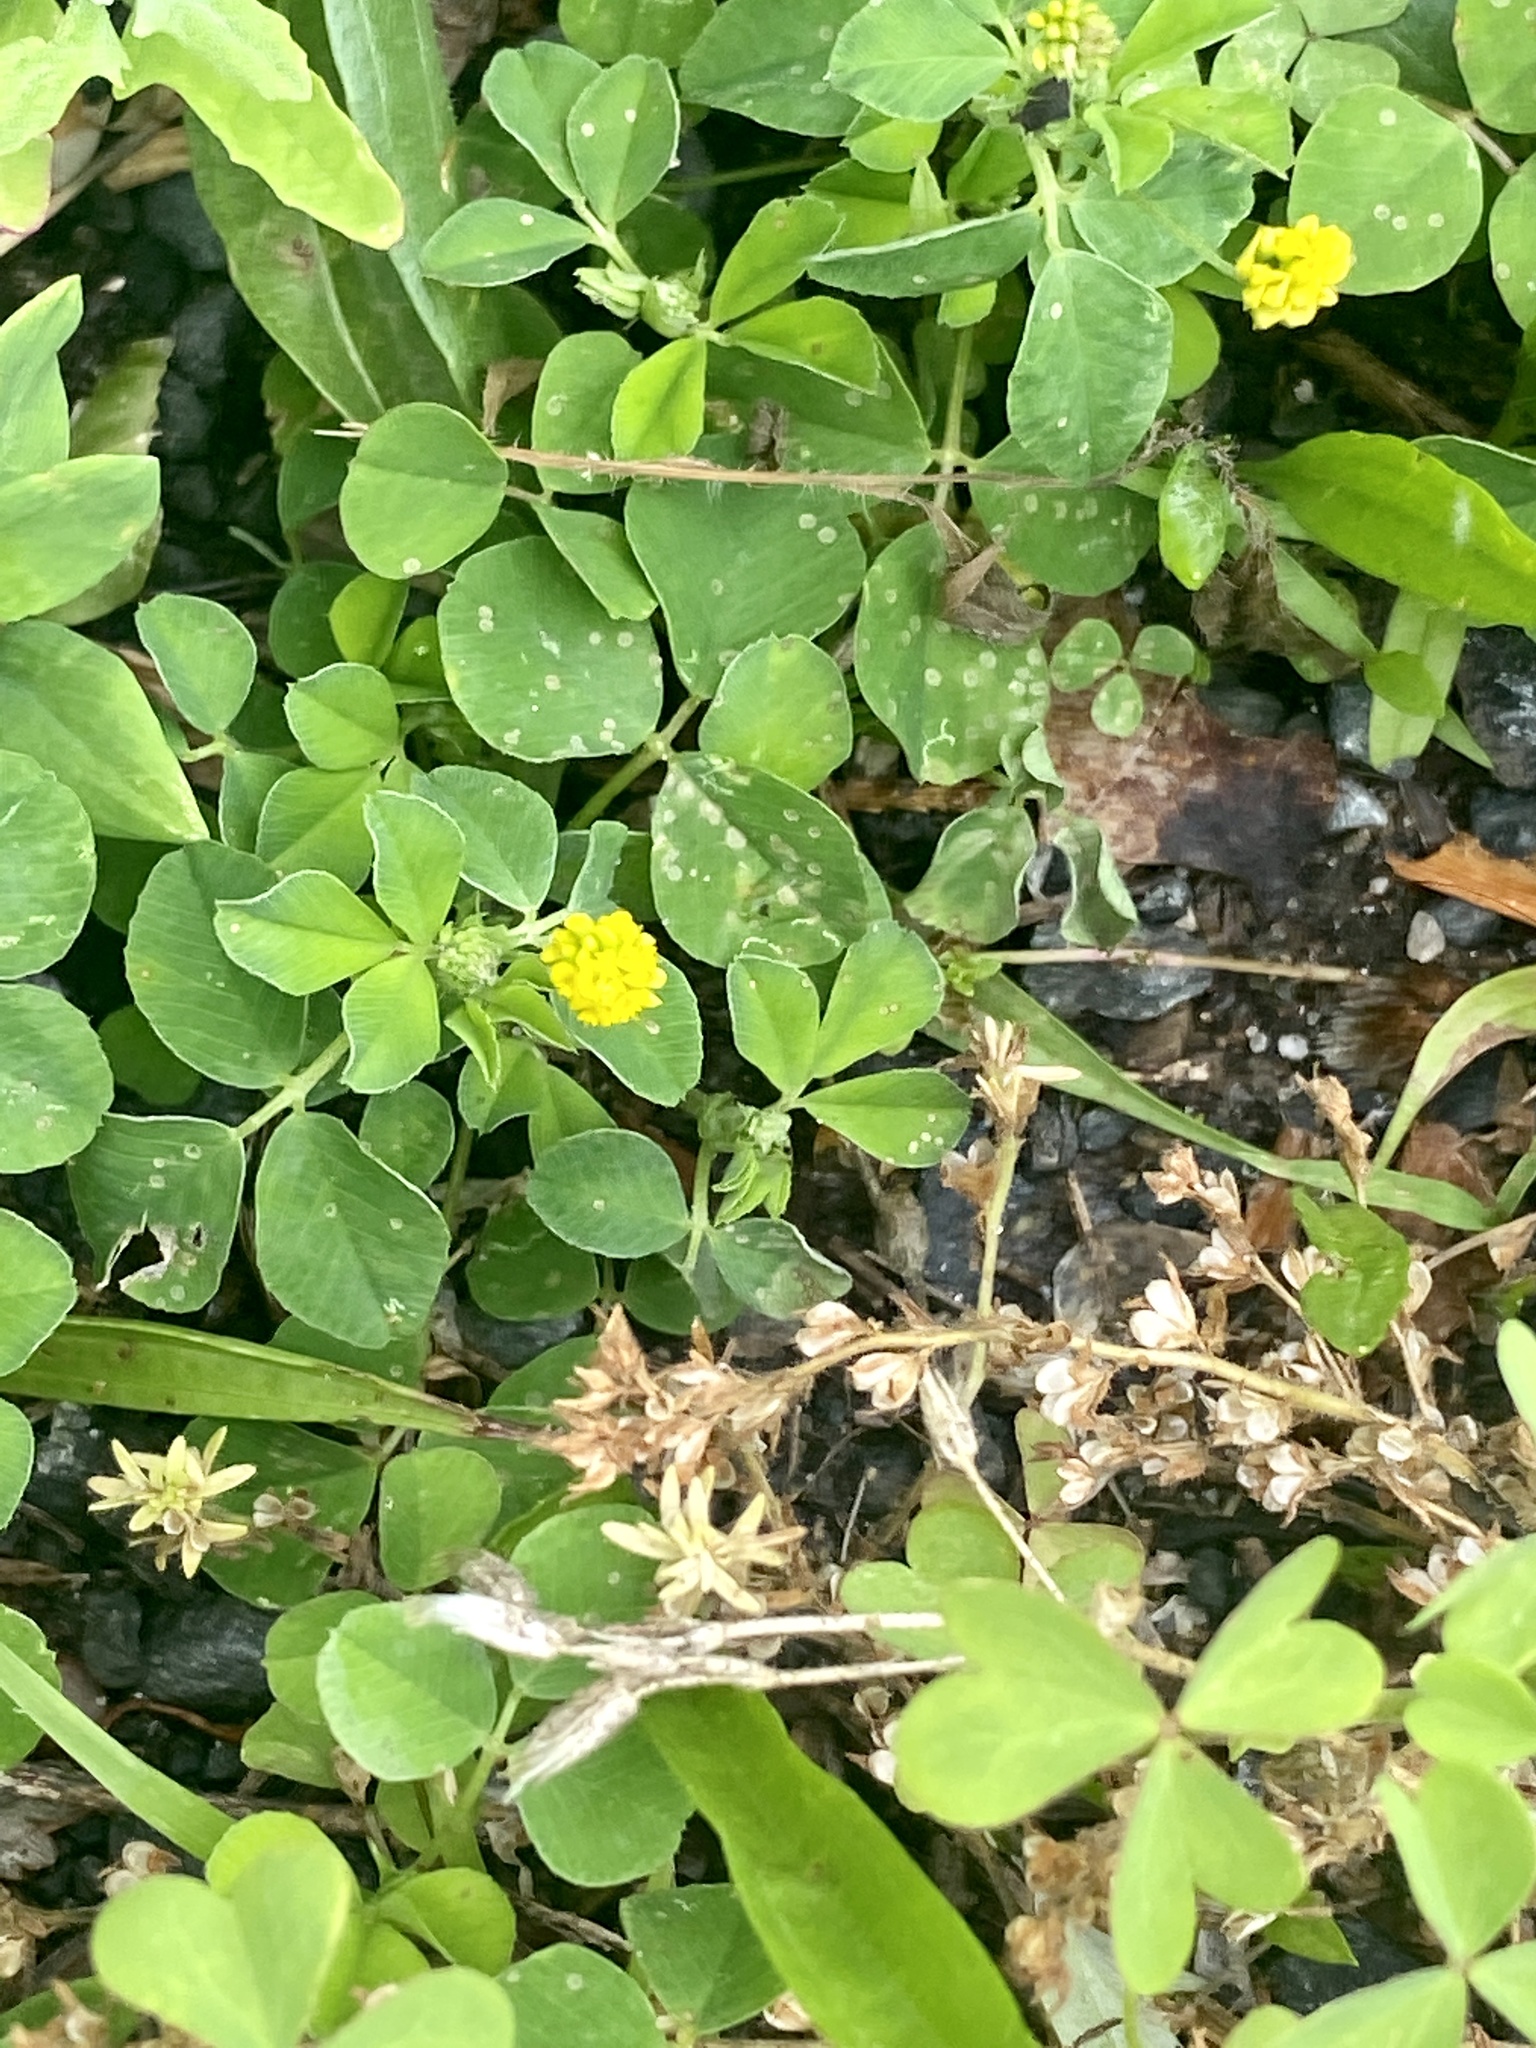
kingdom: Plantae
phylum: Tracheophyta
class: Magnoliopsida
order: Fabales
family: Fabaceae
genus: Medicago
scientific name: Medicago lupulina
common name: Black medick
